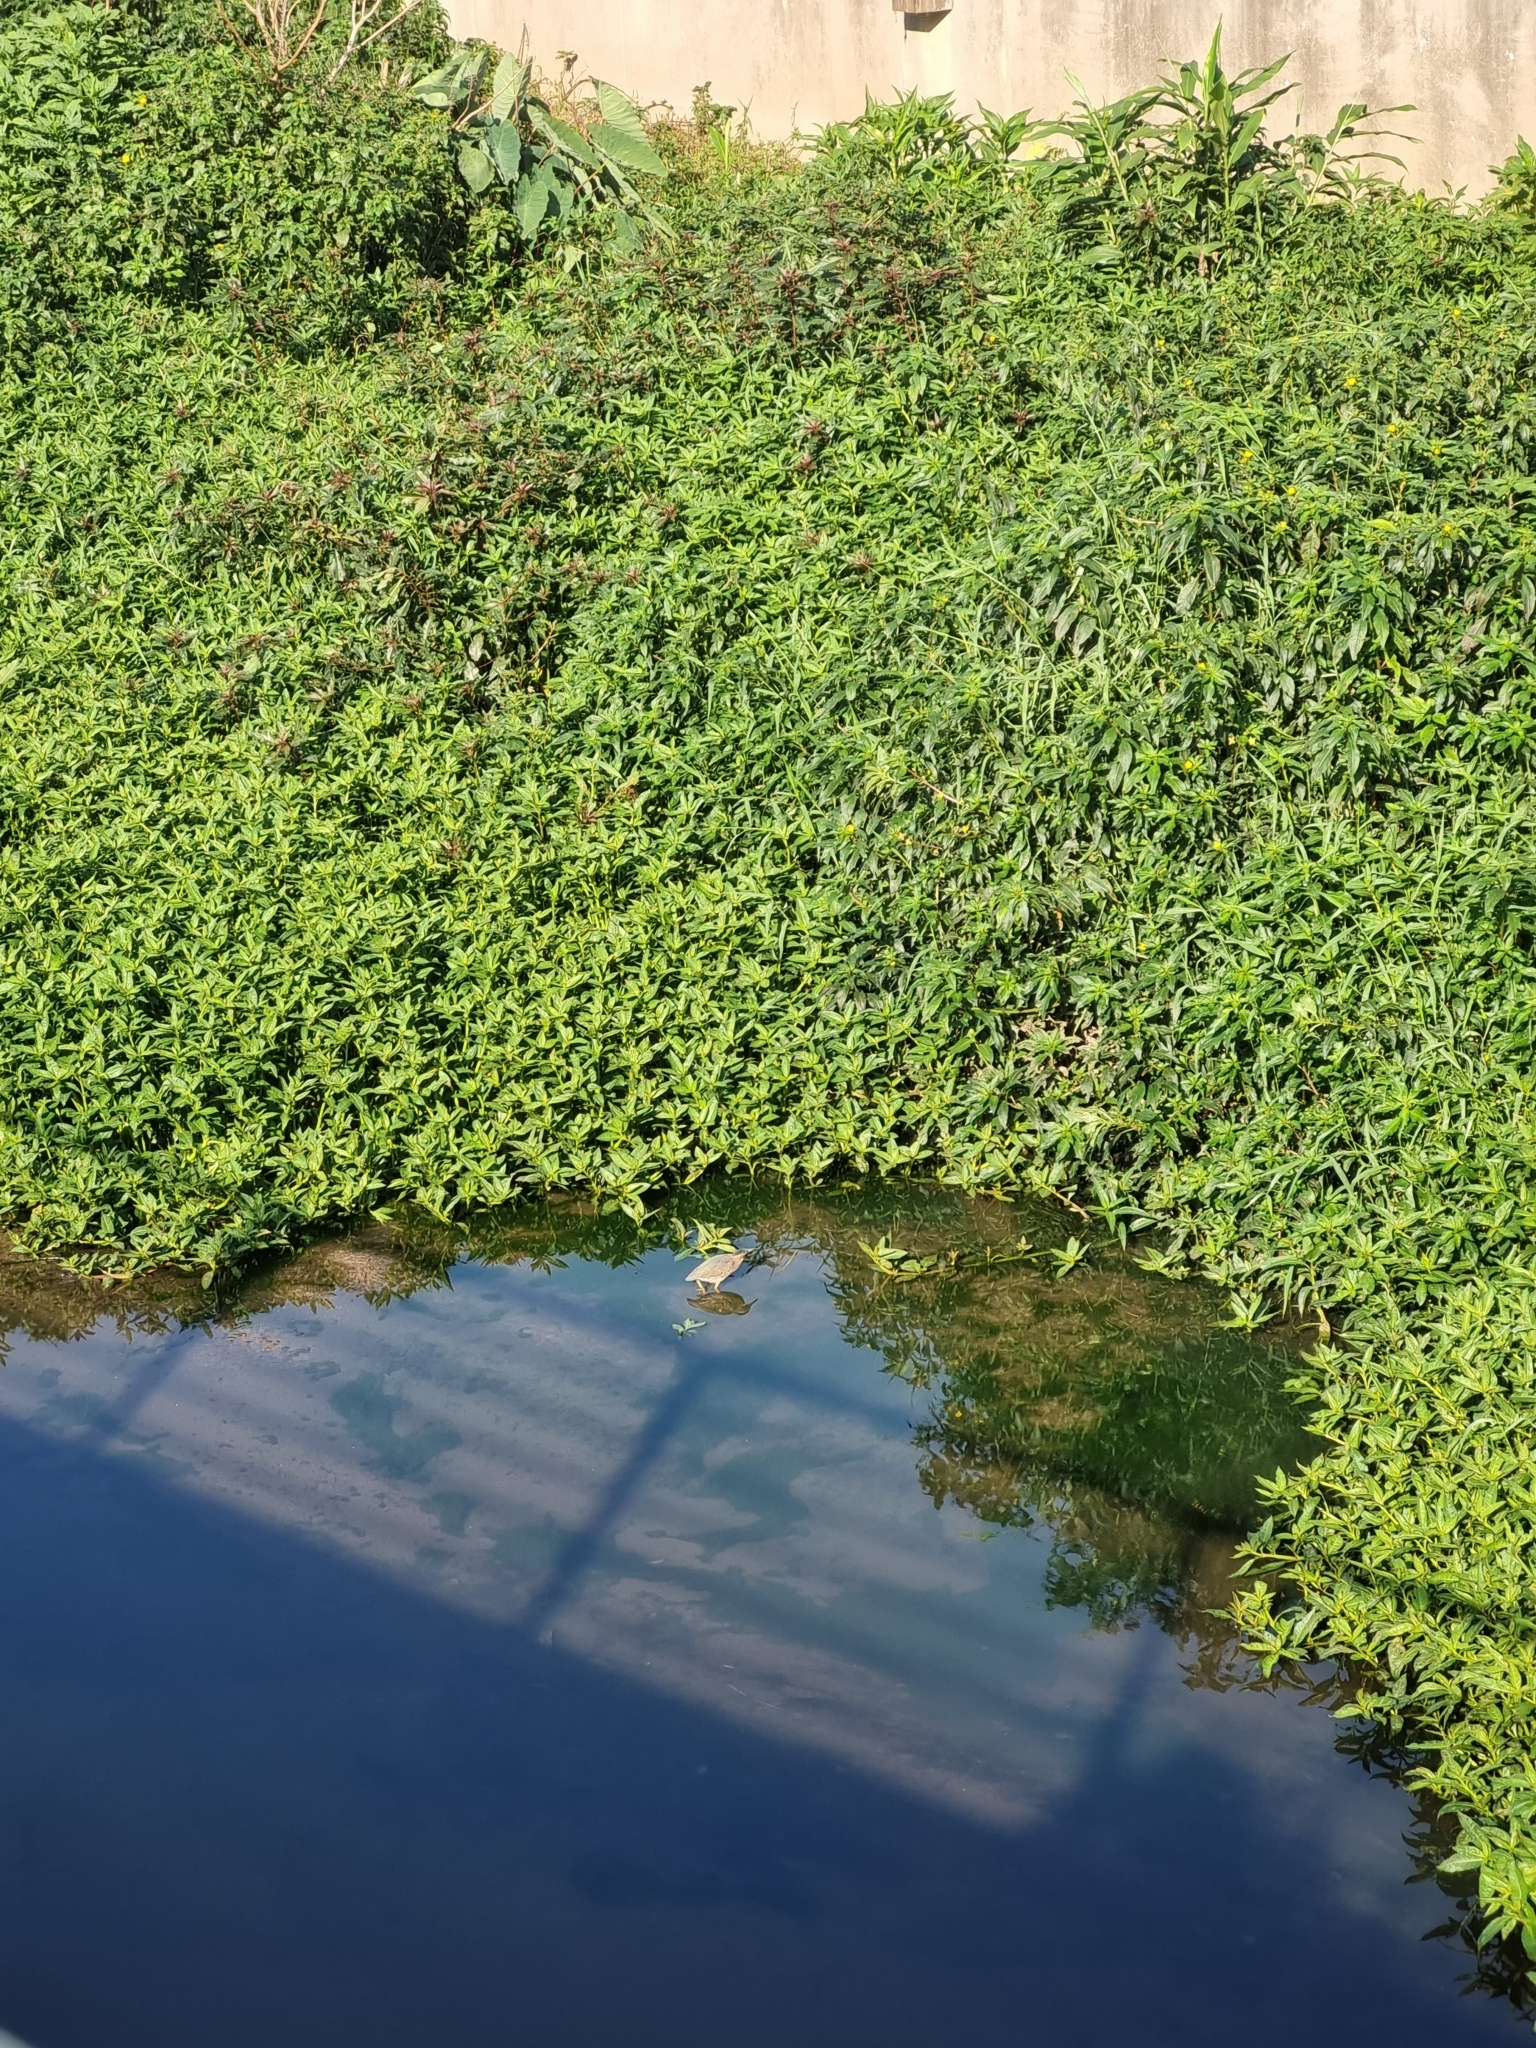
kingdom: Animalia
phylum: Chordata
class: Aves
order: Pelecaniformes
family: Ardeidae
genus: Butorides
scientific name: Butorides striata
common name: Striated heron
